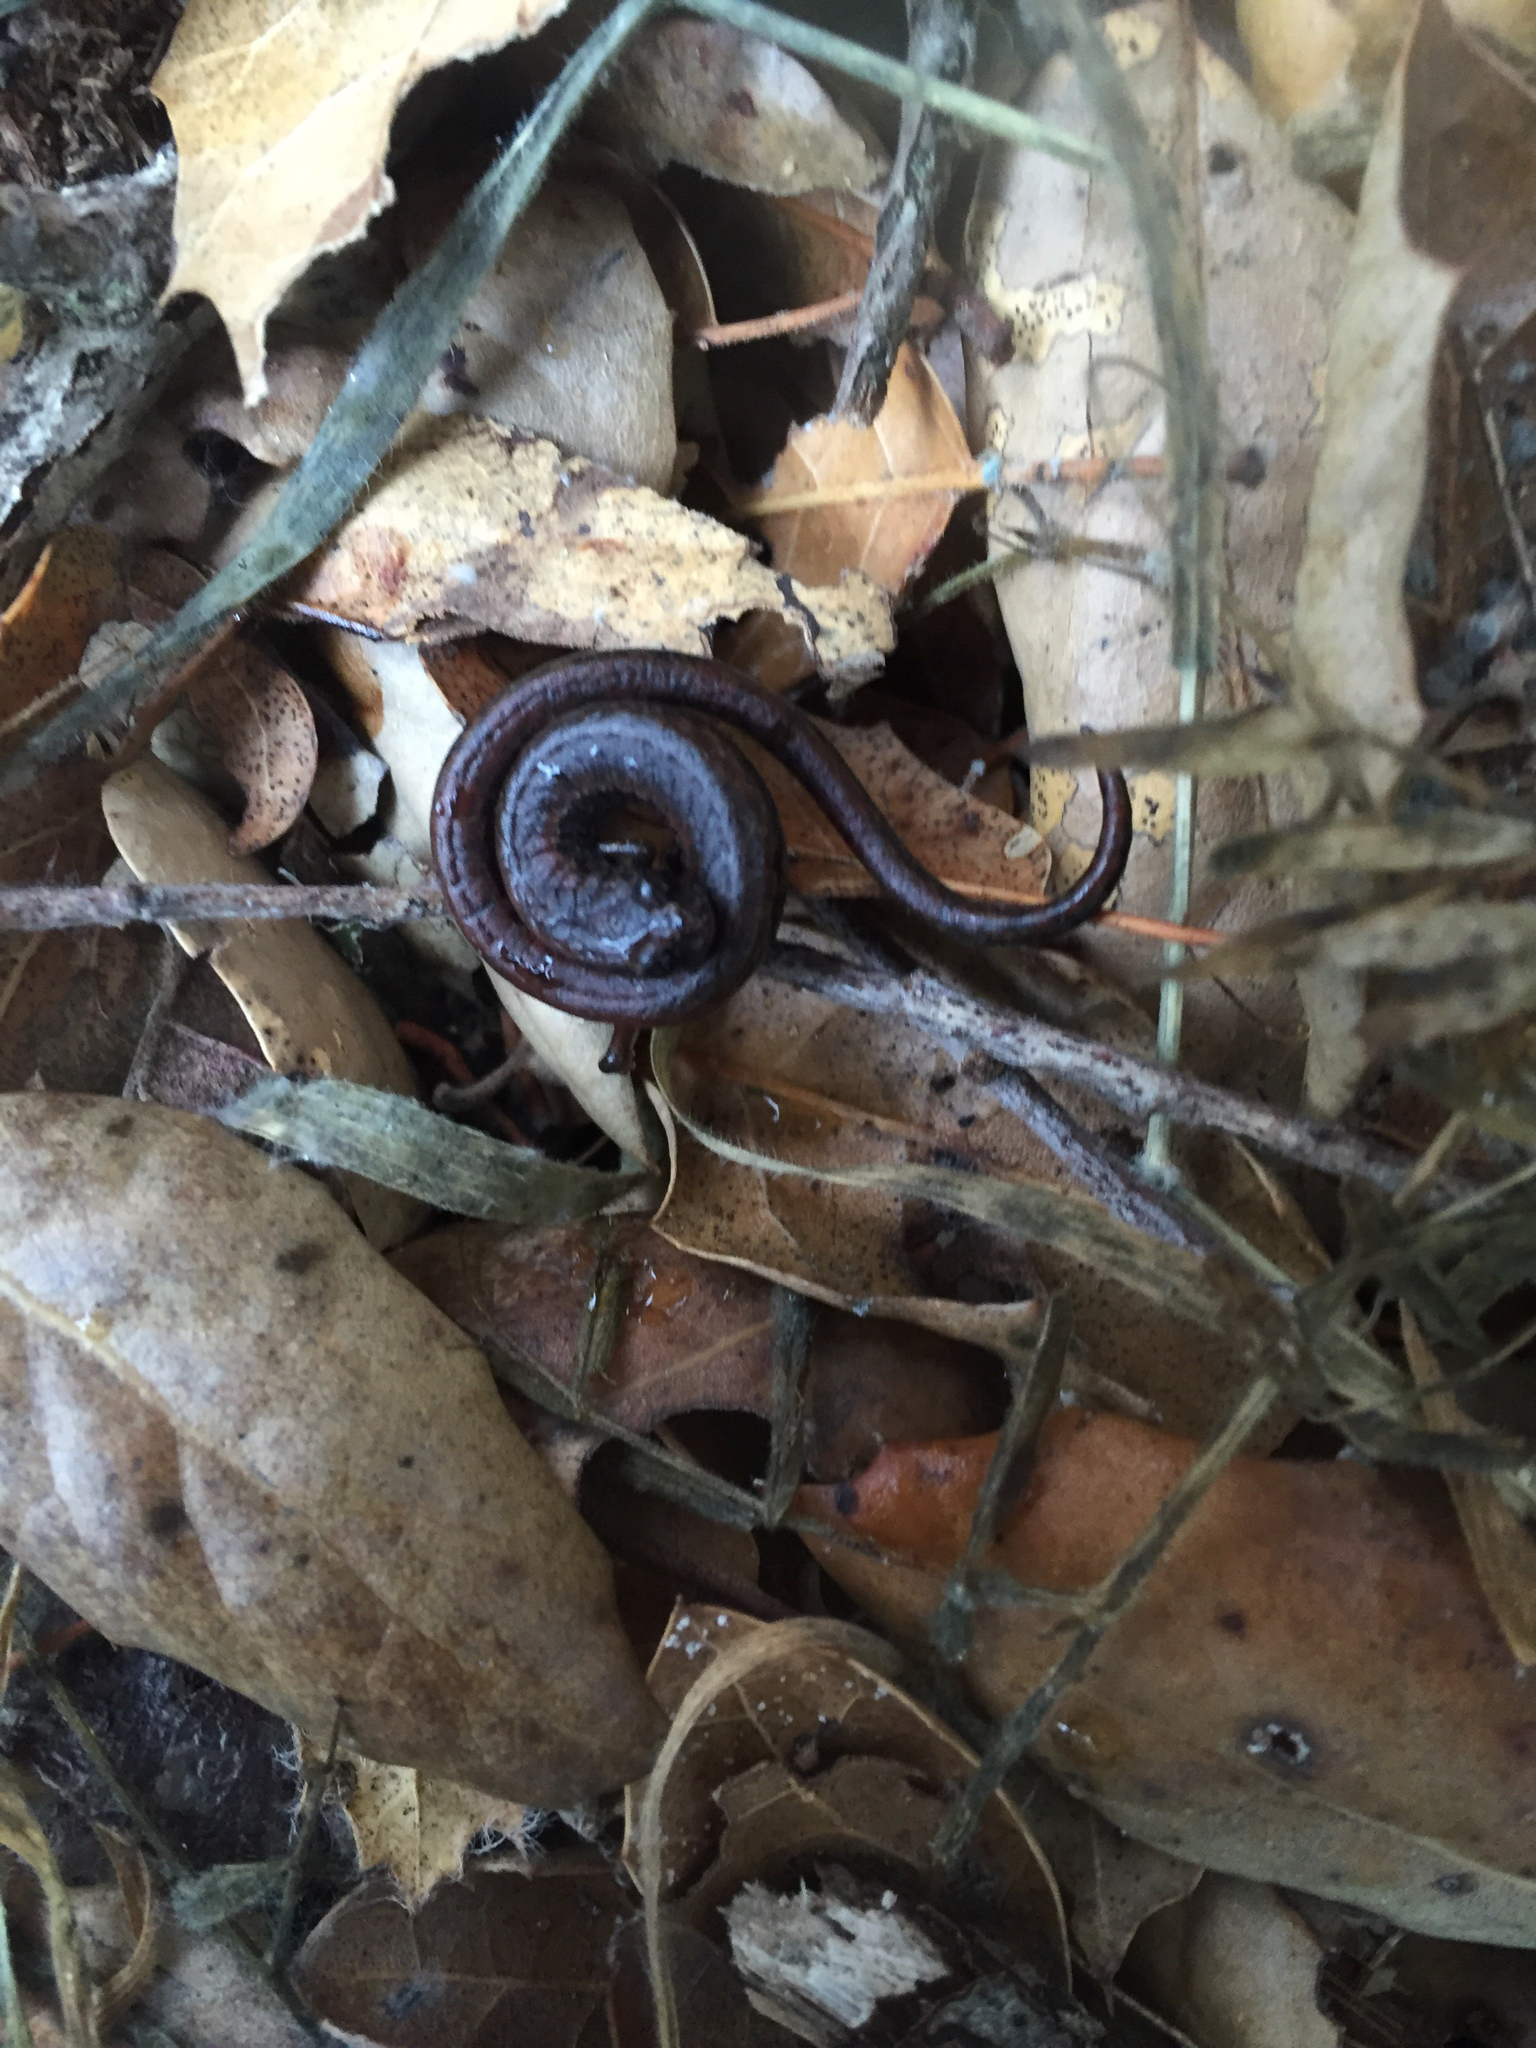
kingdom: Animalia
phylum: Chordata
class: Amphibia
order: Caudata
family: Plethodontidae
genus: Batrachoseps
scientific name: Batrachoseps attenuatus
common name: California slender salamander
